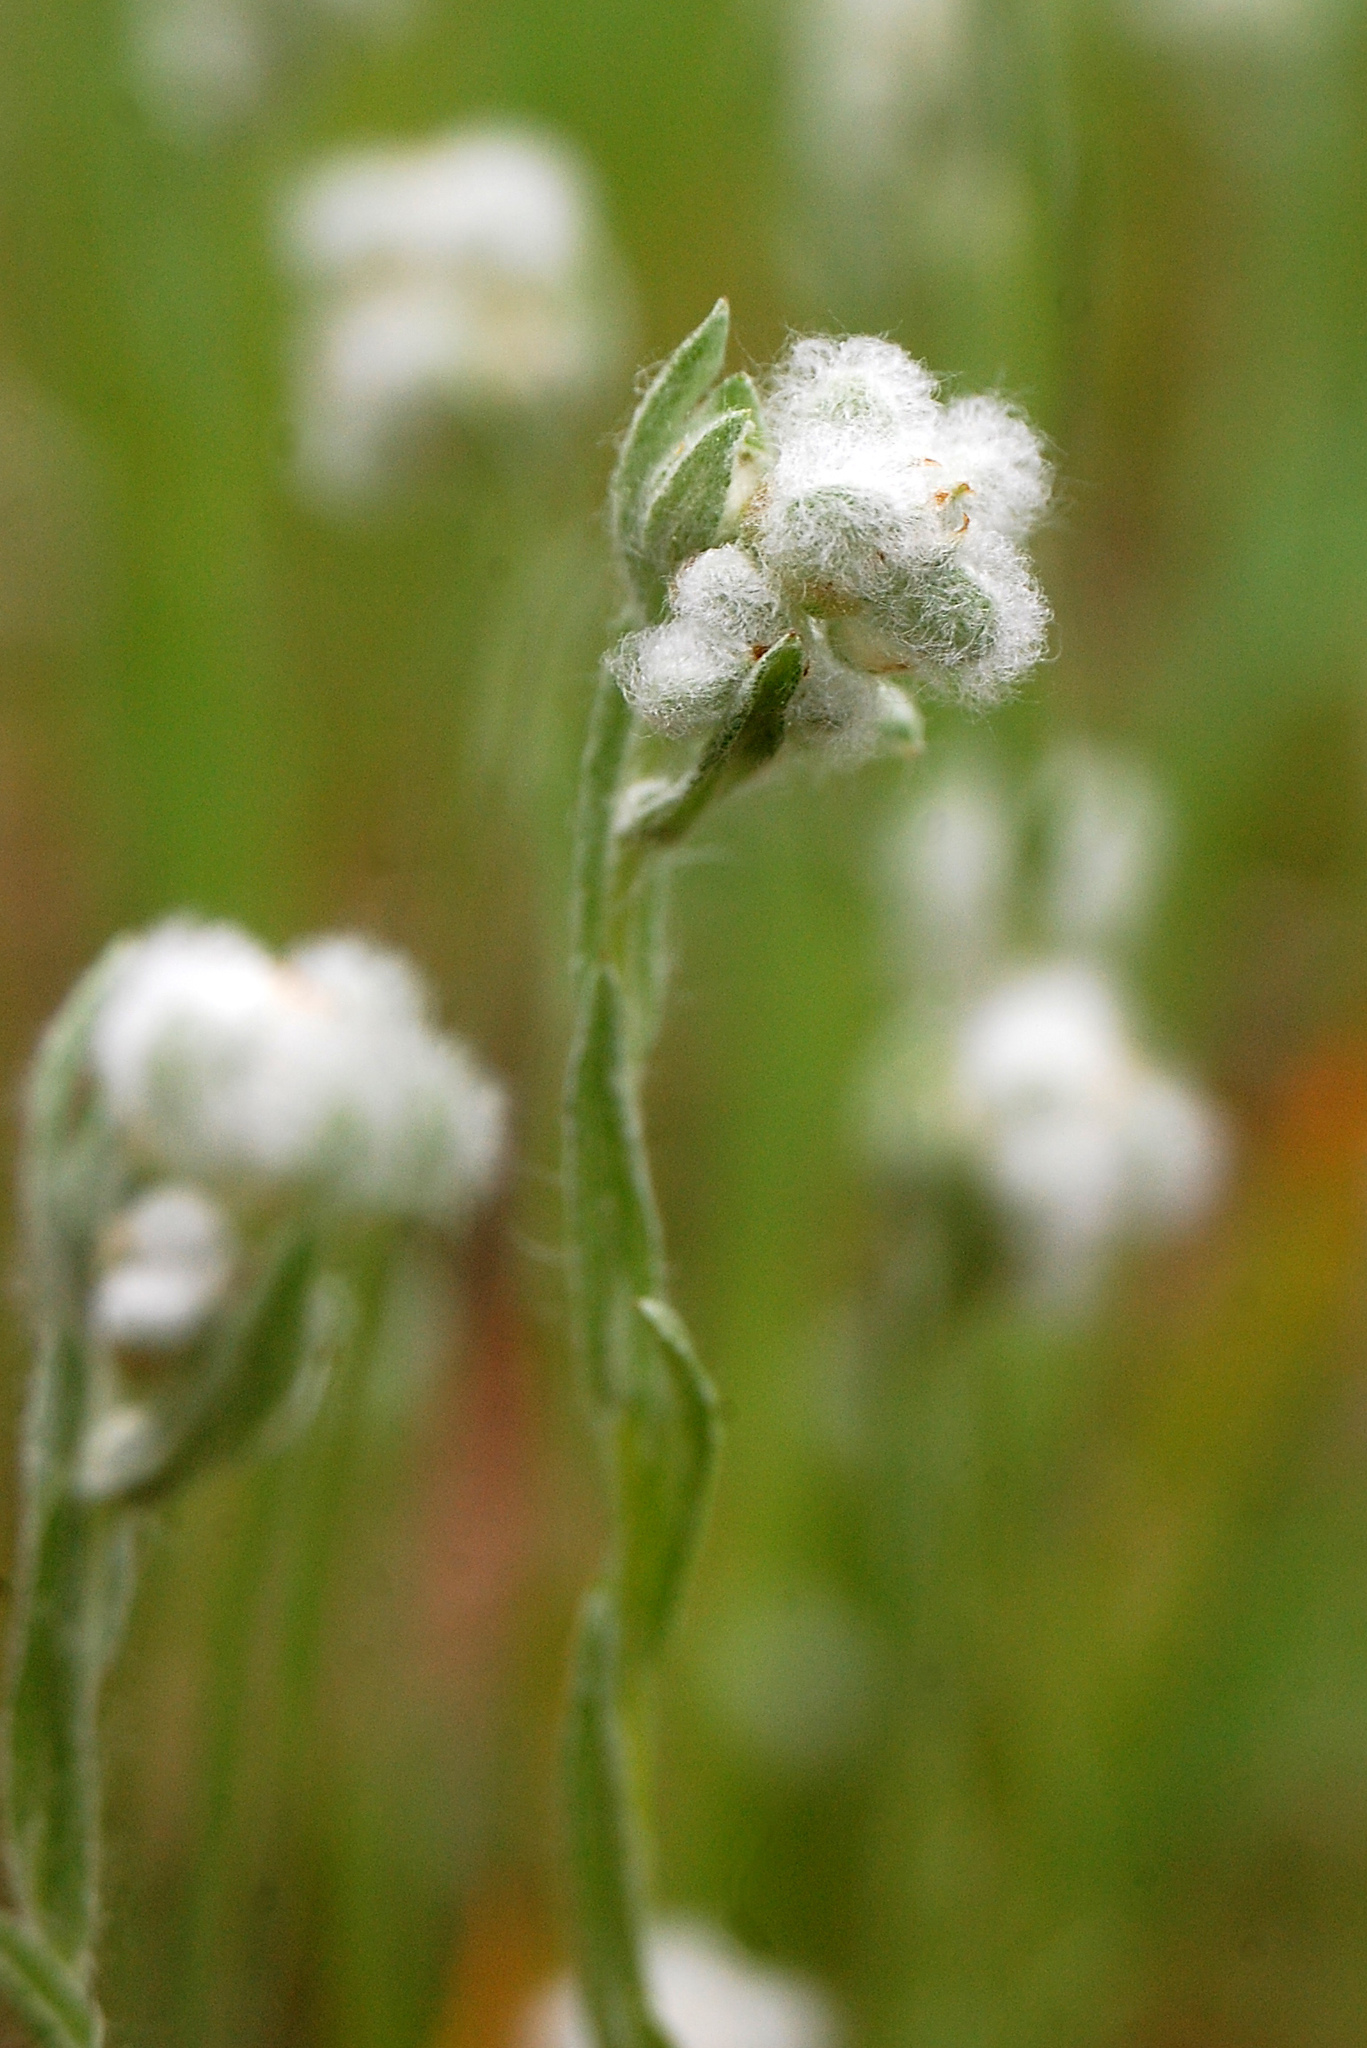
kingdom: Plantae
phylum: Tracheophyta
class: Magnoliopsida
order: Asterales
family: Asteraceae
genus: Bombycilaena
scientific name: Bombycilaena californica
